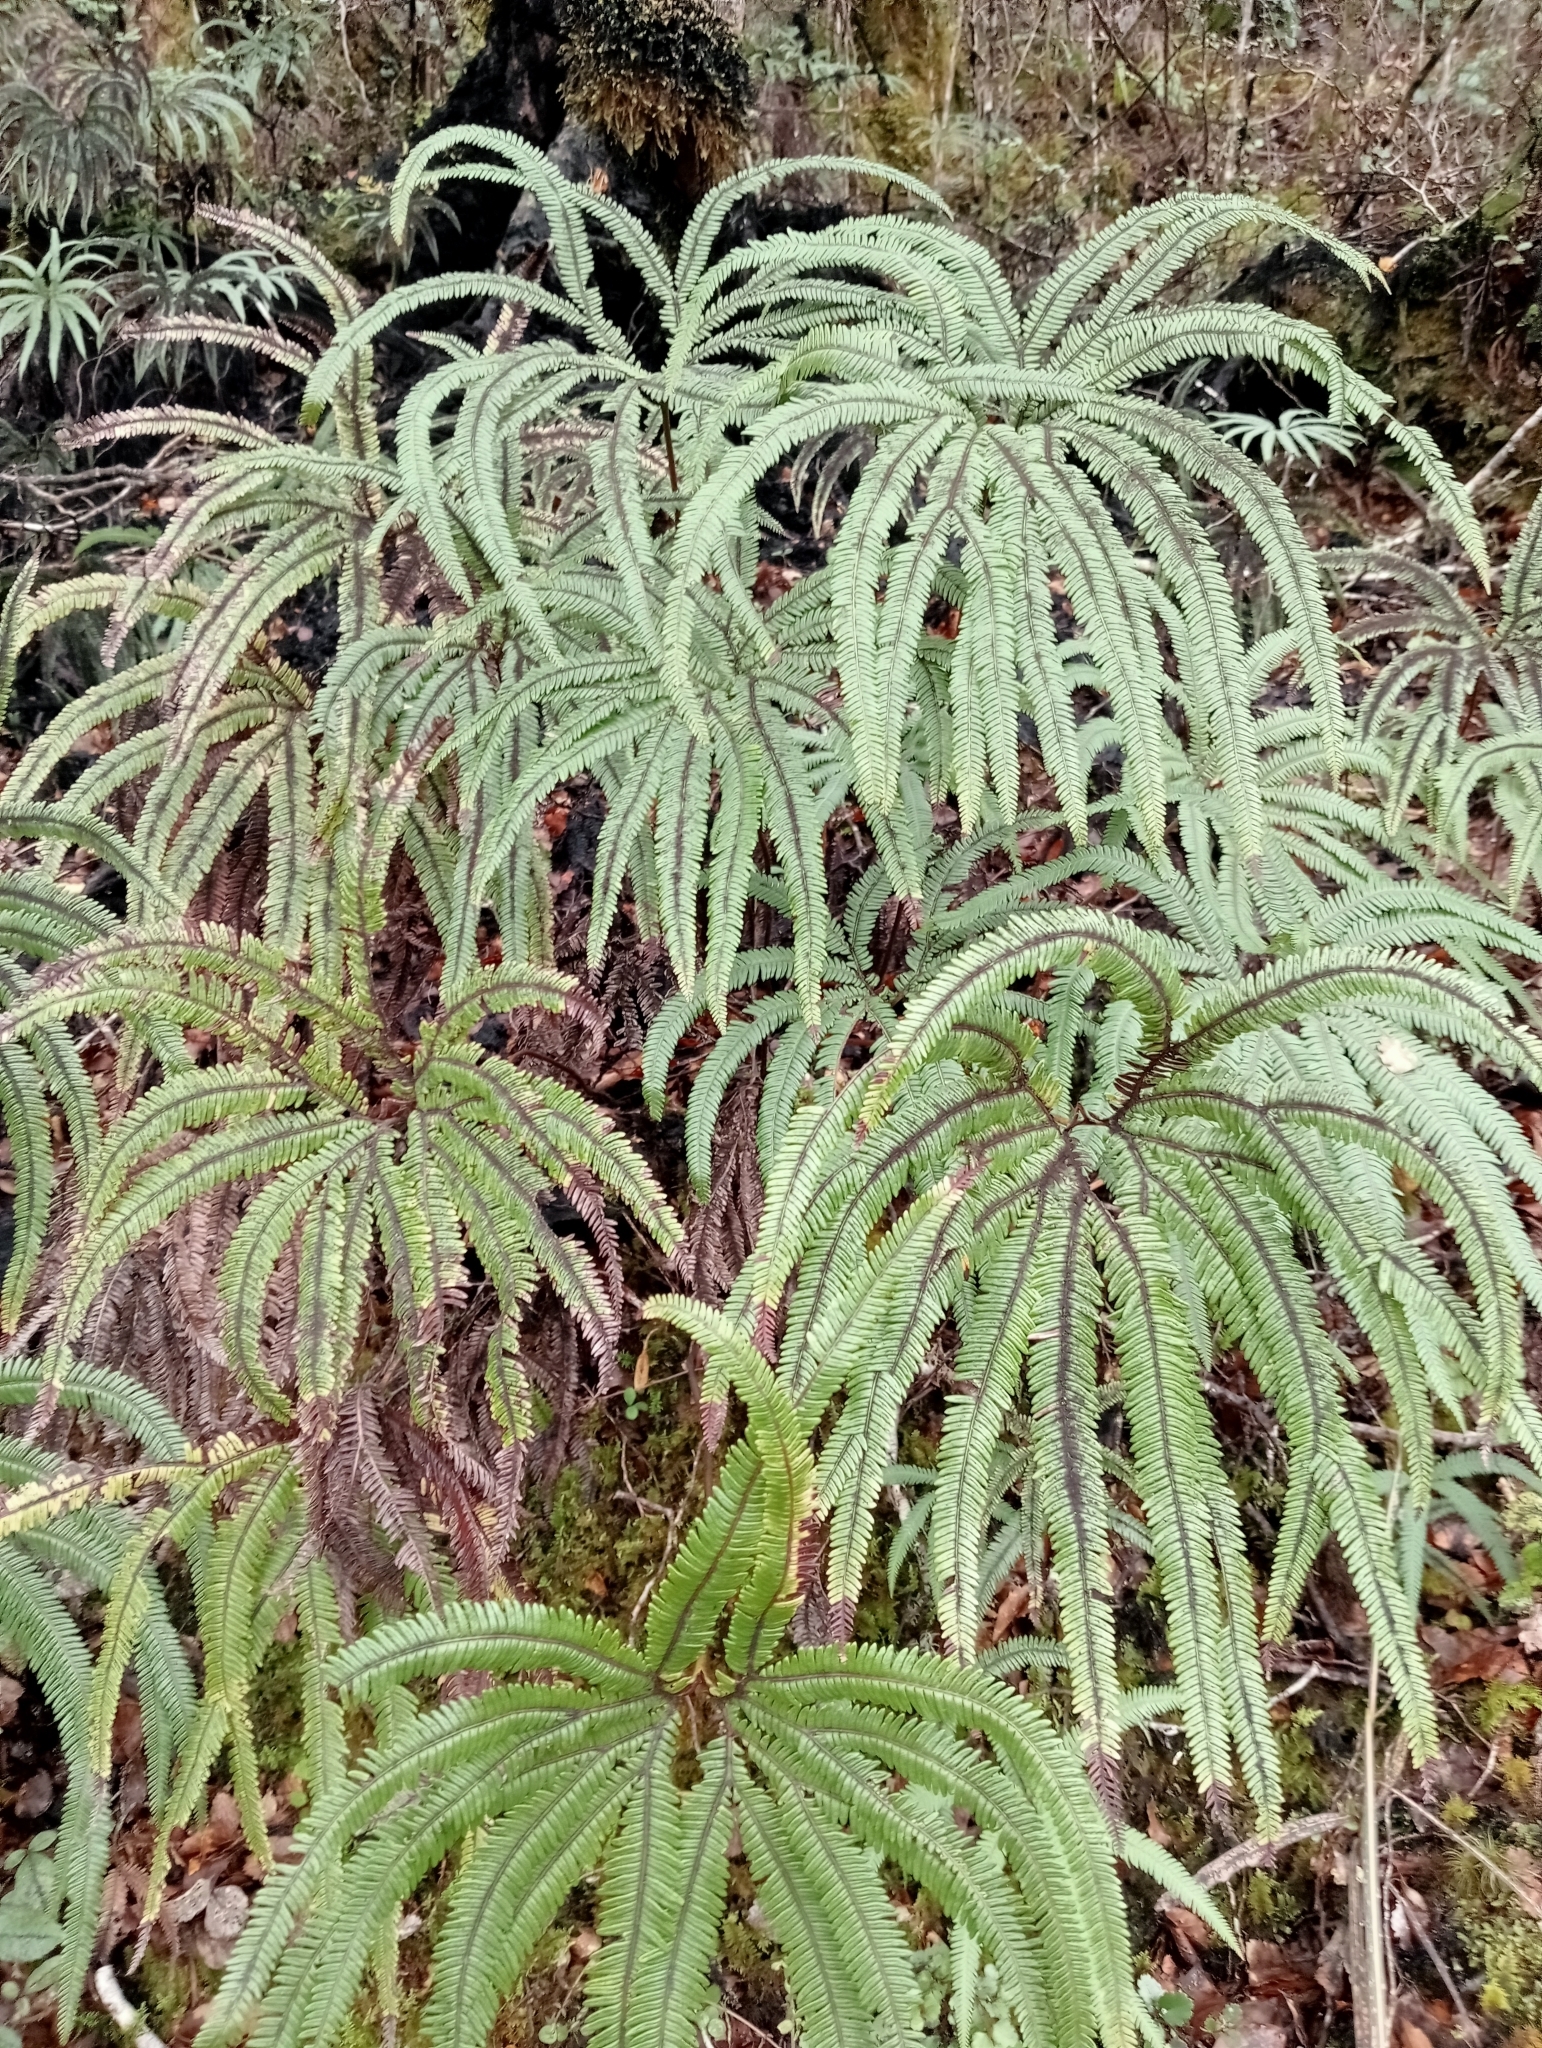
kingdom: Plantae
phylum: Tracheophyta
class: Polypodiopsida
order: Gleicheniales
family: Gleicheniaceae
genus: Sticherus
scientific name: Sticherus cunninghamii
